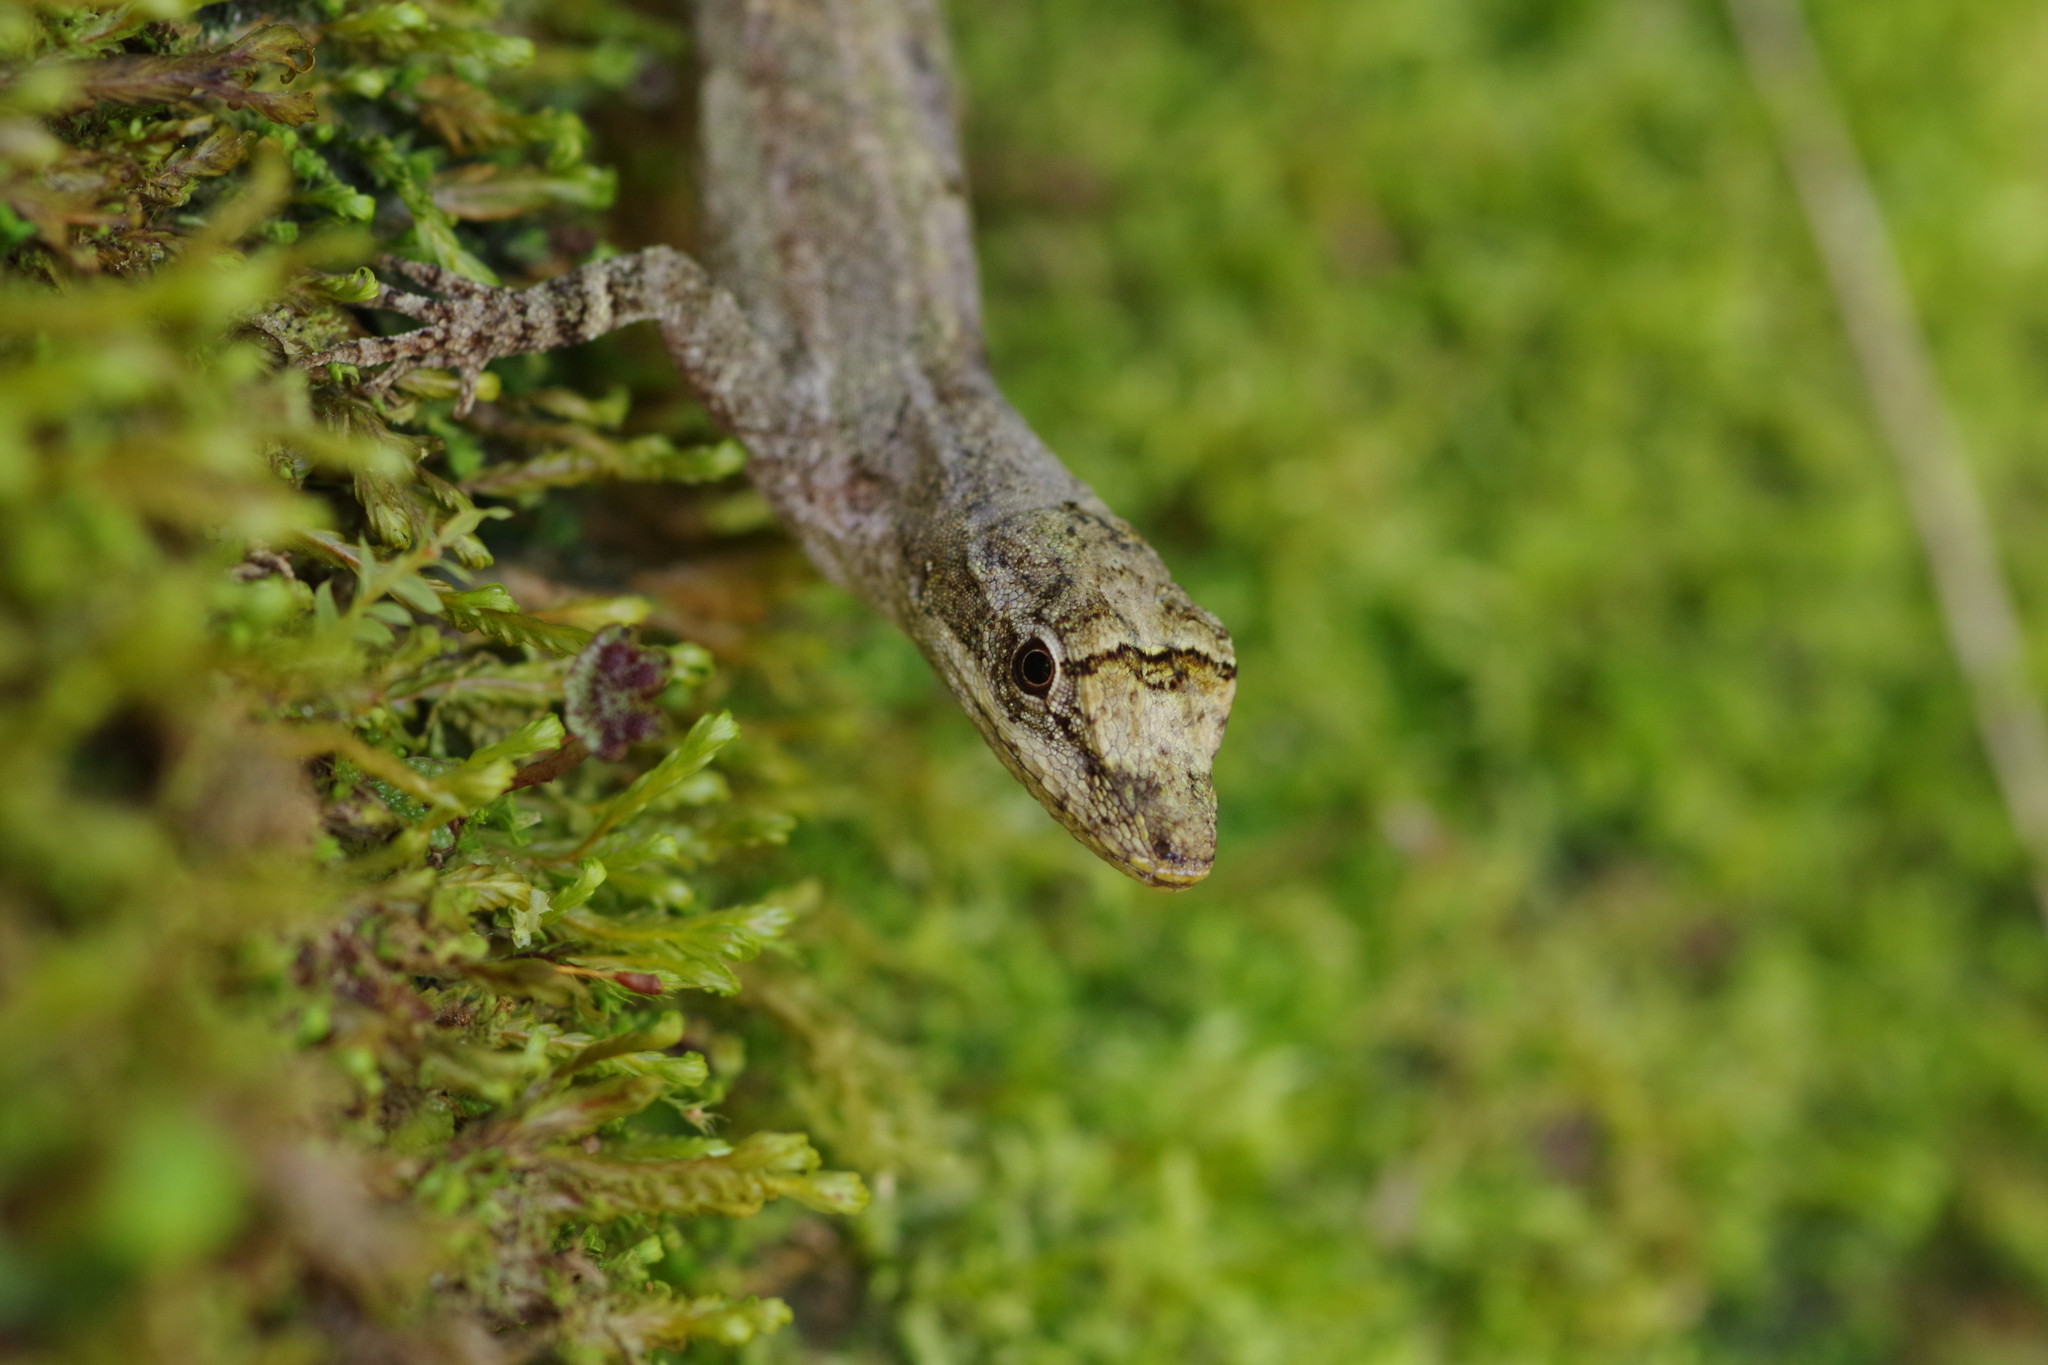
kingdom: Animalia
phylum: Chordata
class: Squamata
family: Dactyloidae
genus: Anolis
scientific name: Anolis polylepis
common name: Many-scaled anole
